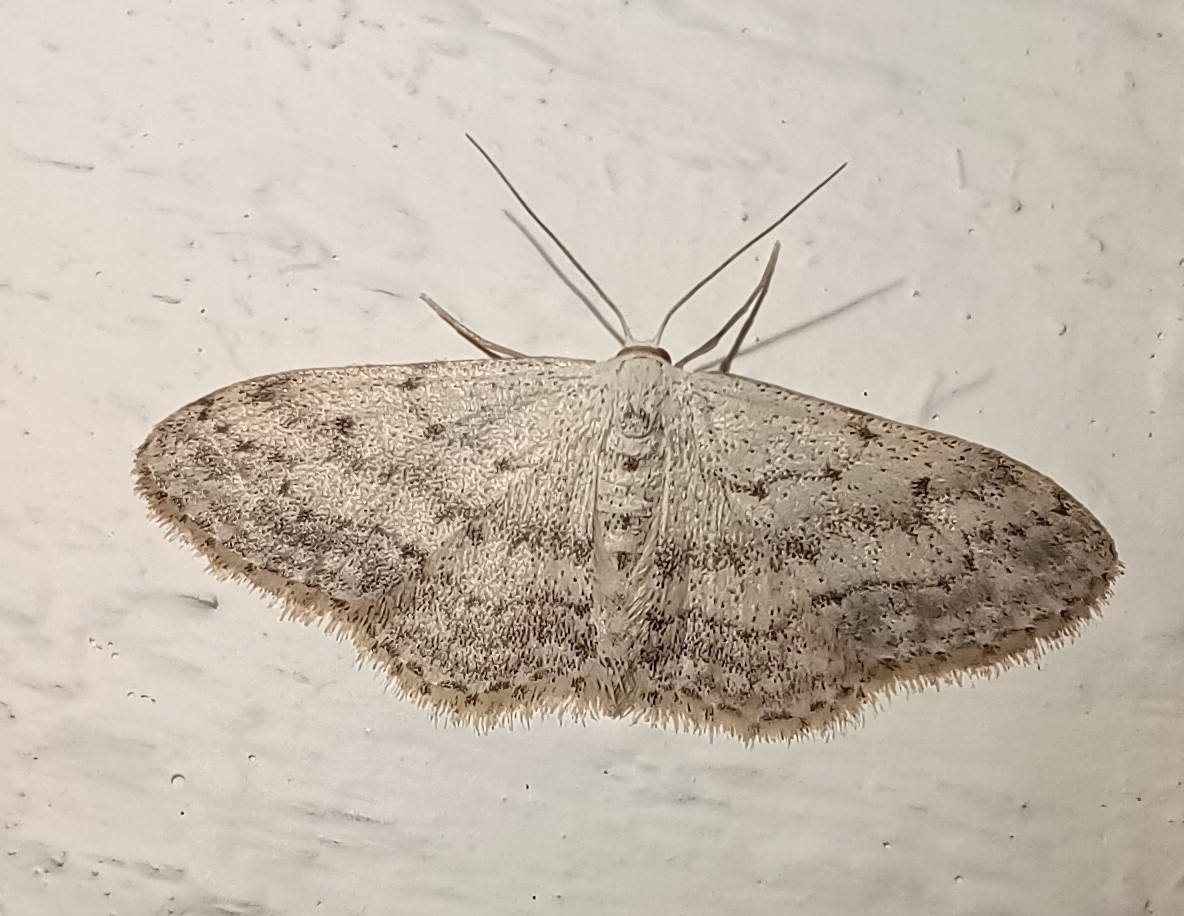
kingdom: Animalia
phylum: Arthropoda
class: Insecta
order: Lepidoptera
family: Geometridae
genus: Idaea
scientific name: Idaea seriata
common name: Small dusty wave
